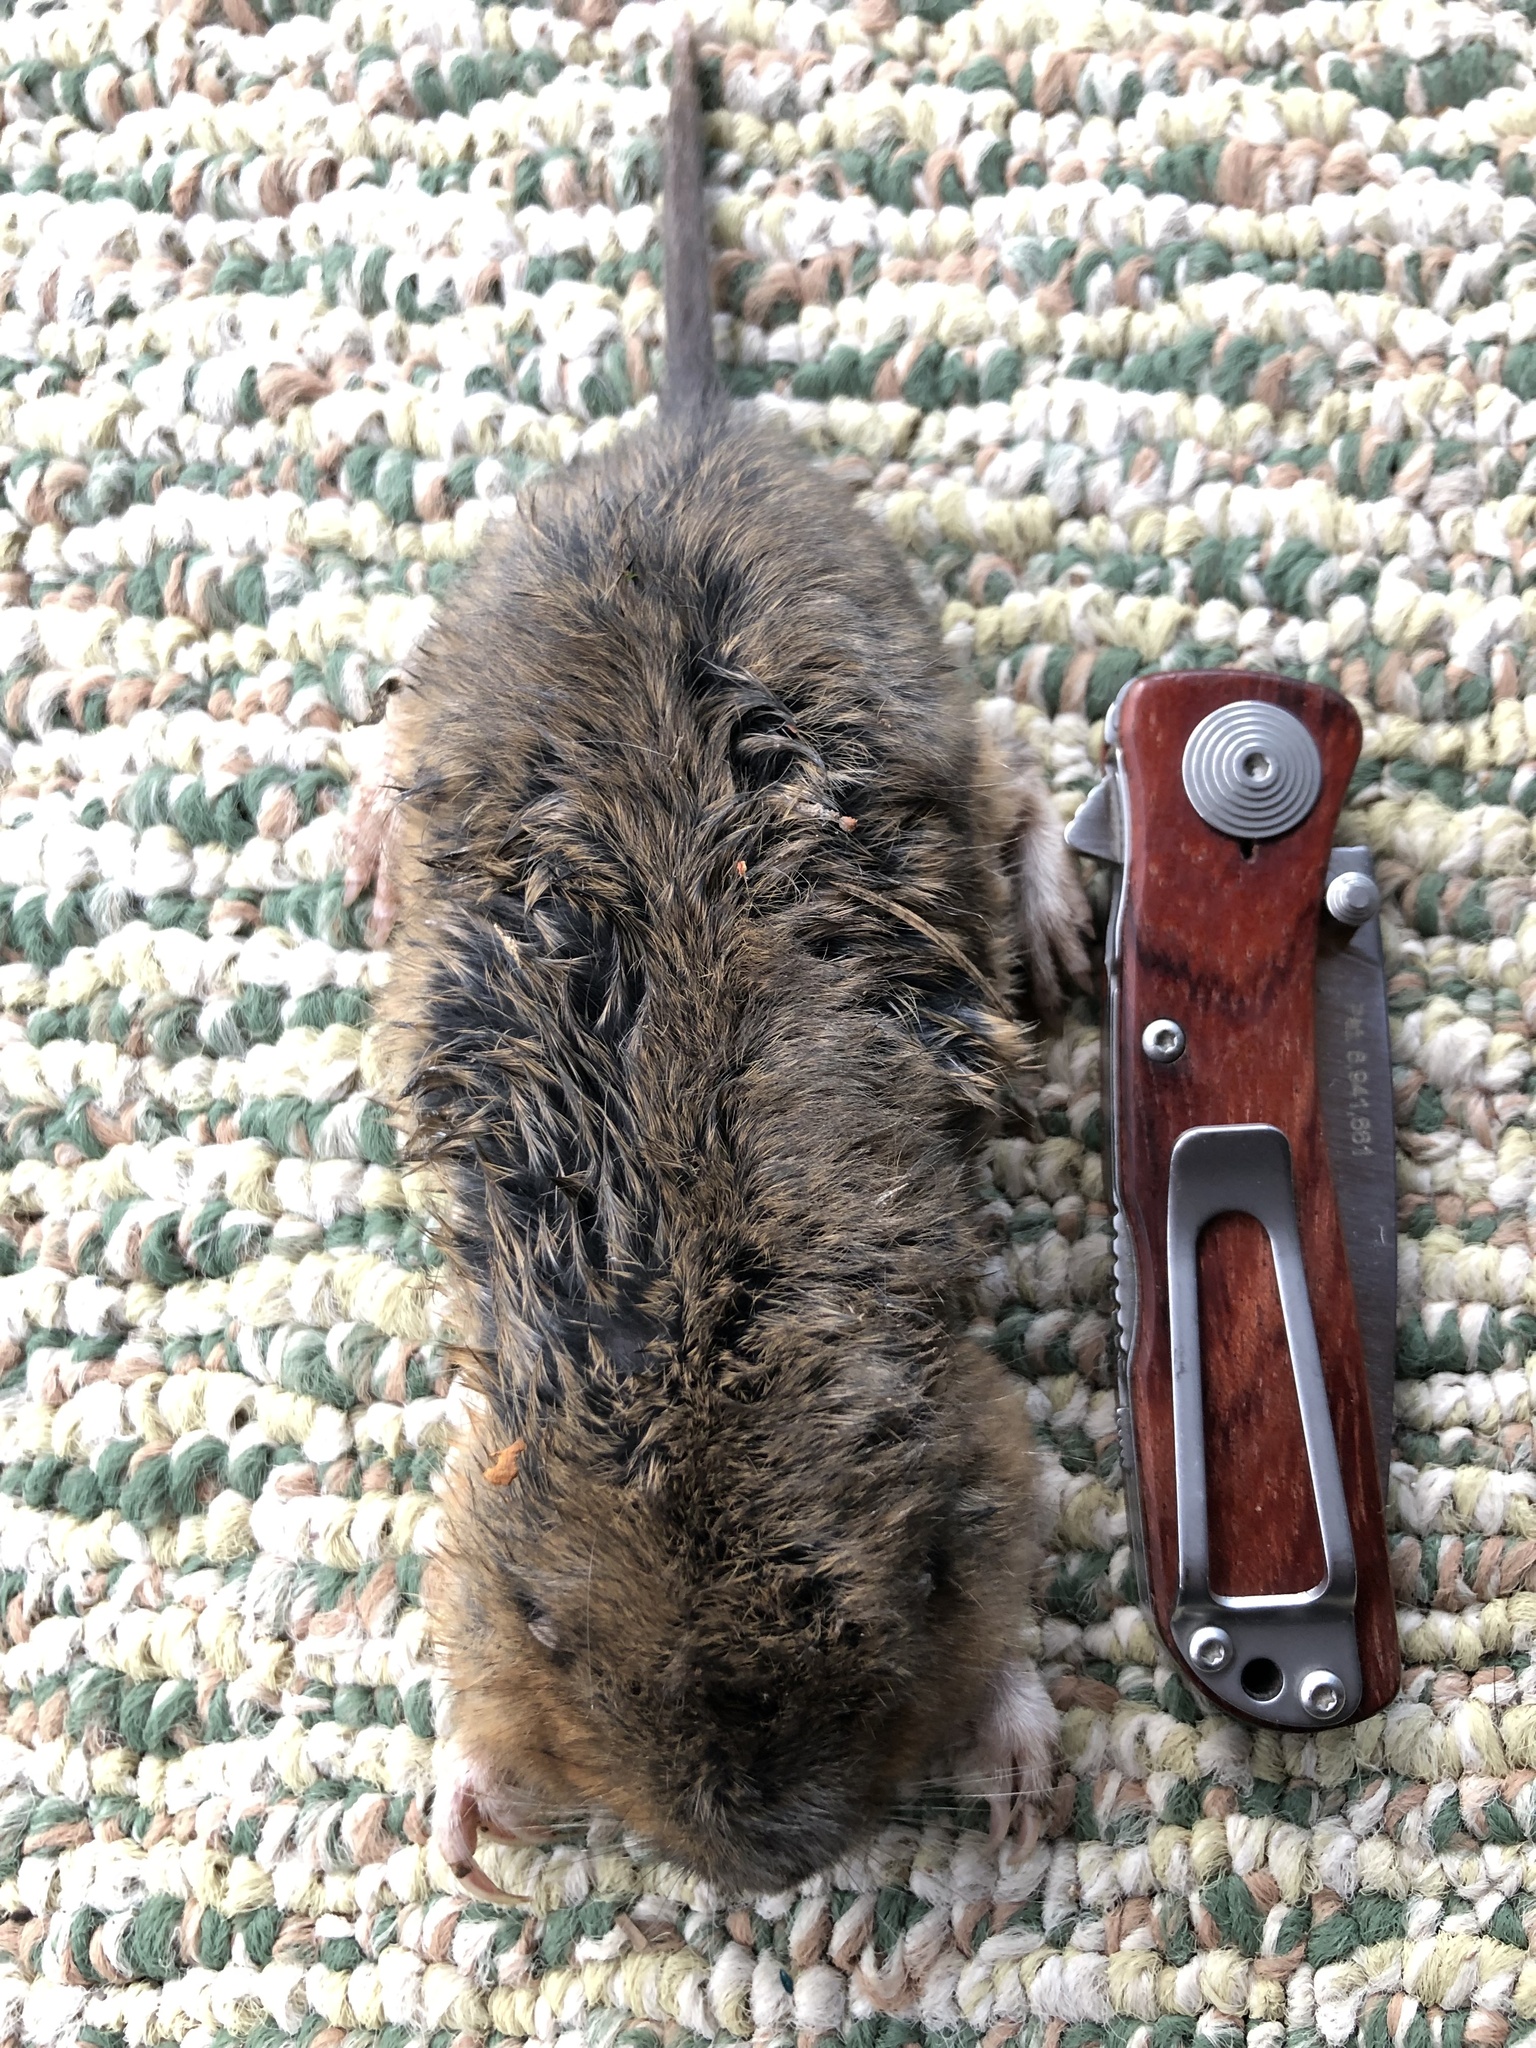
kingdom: Animalia
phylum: Chordata
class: Mammalia
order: Rodentia
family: Geomyidae
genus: Thomomys
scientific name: Thomomys bottae
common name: Botta's pocket gopher
